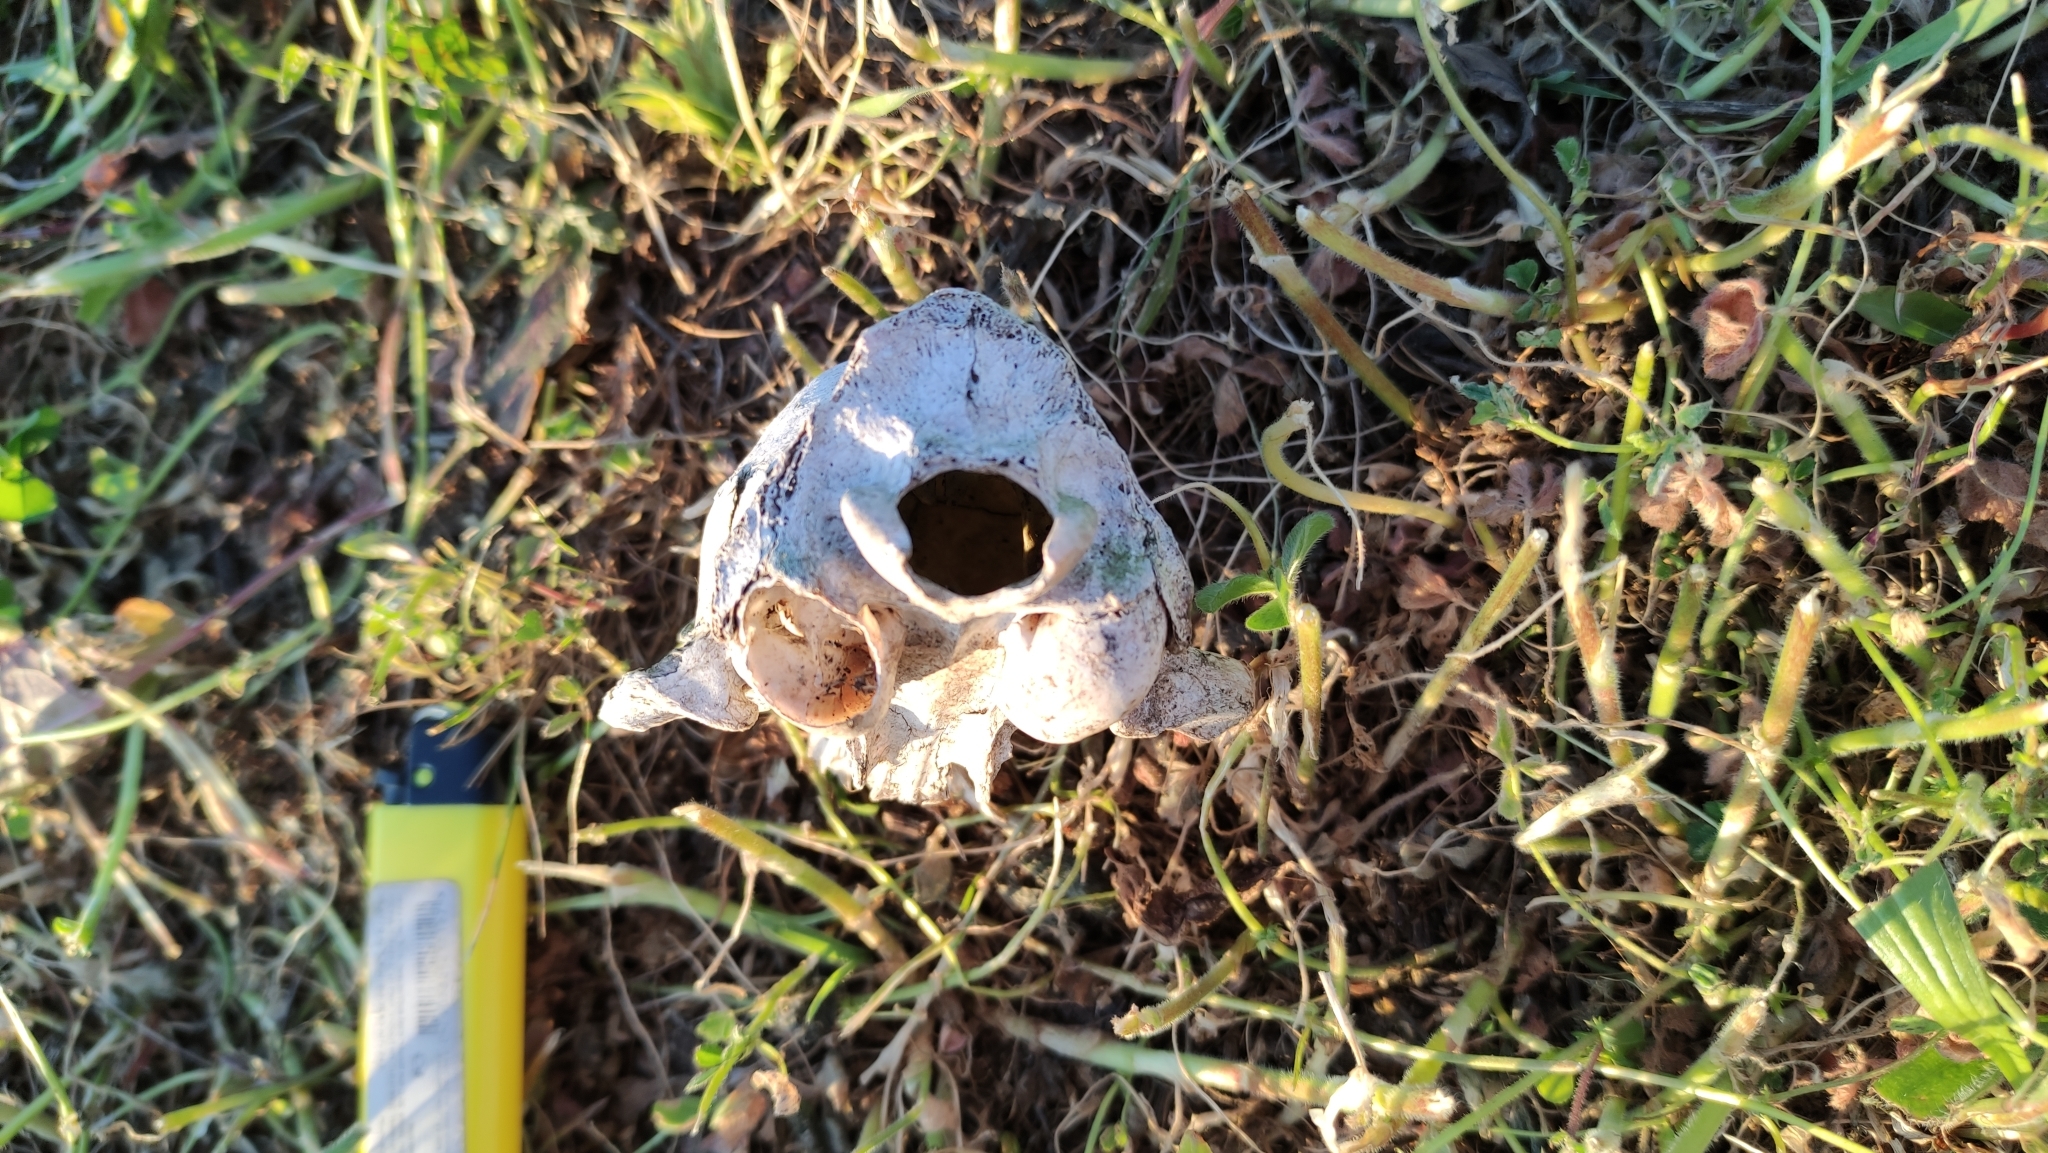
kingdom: Animalia
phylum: Chordata
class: Mammalia
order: Carnivora
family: Felidae
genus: Felis
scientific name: Felis catus
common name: Domestic cat
